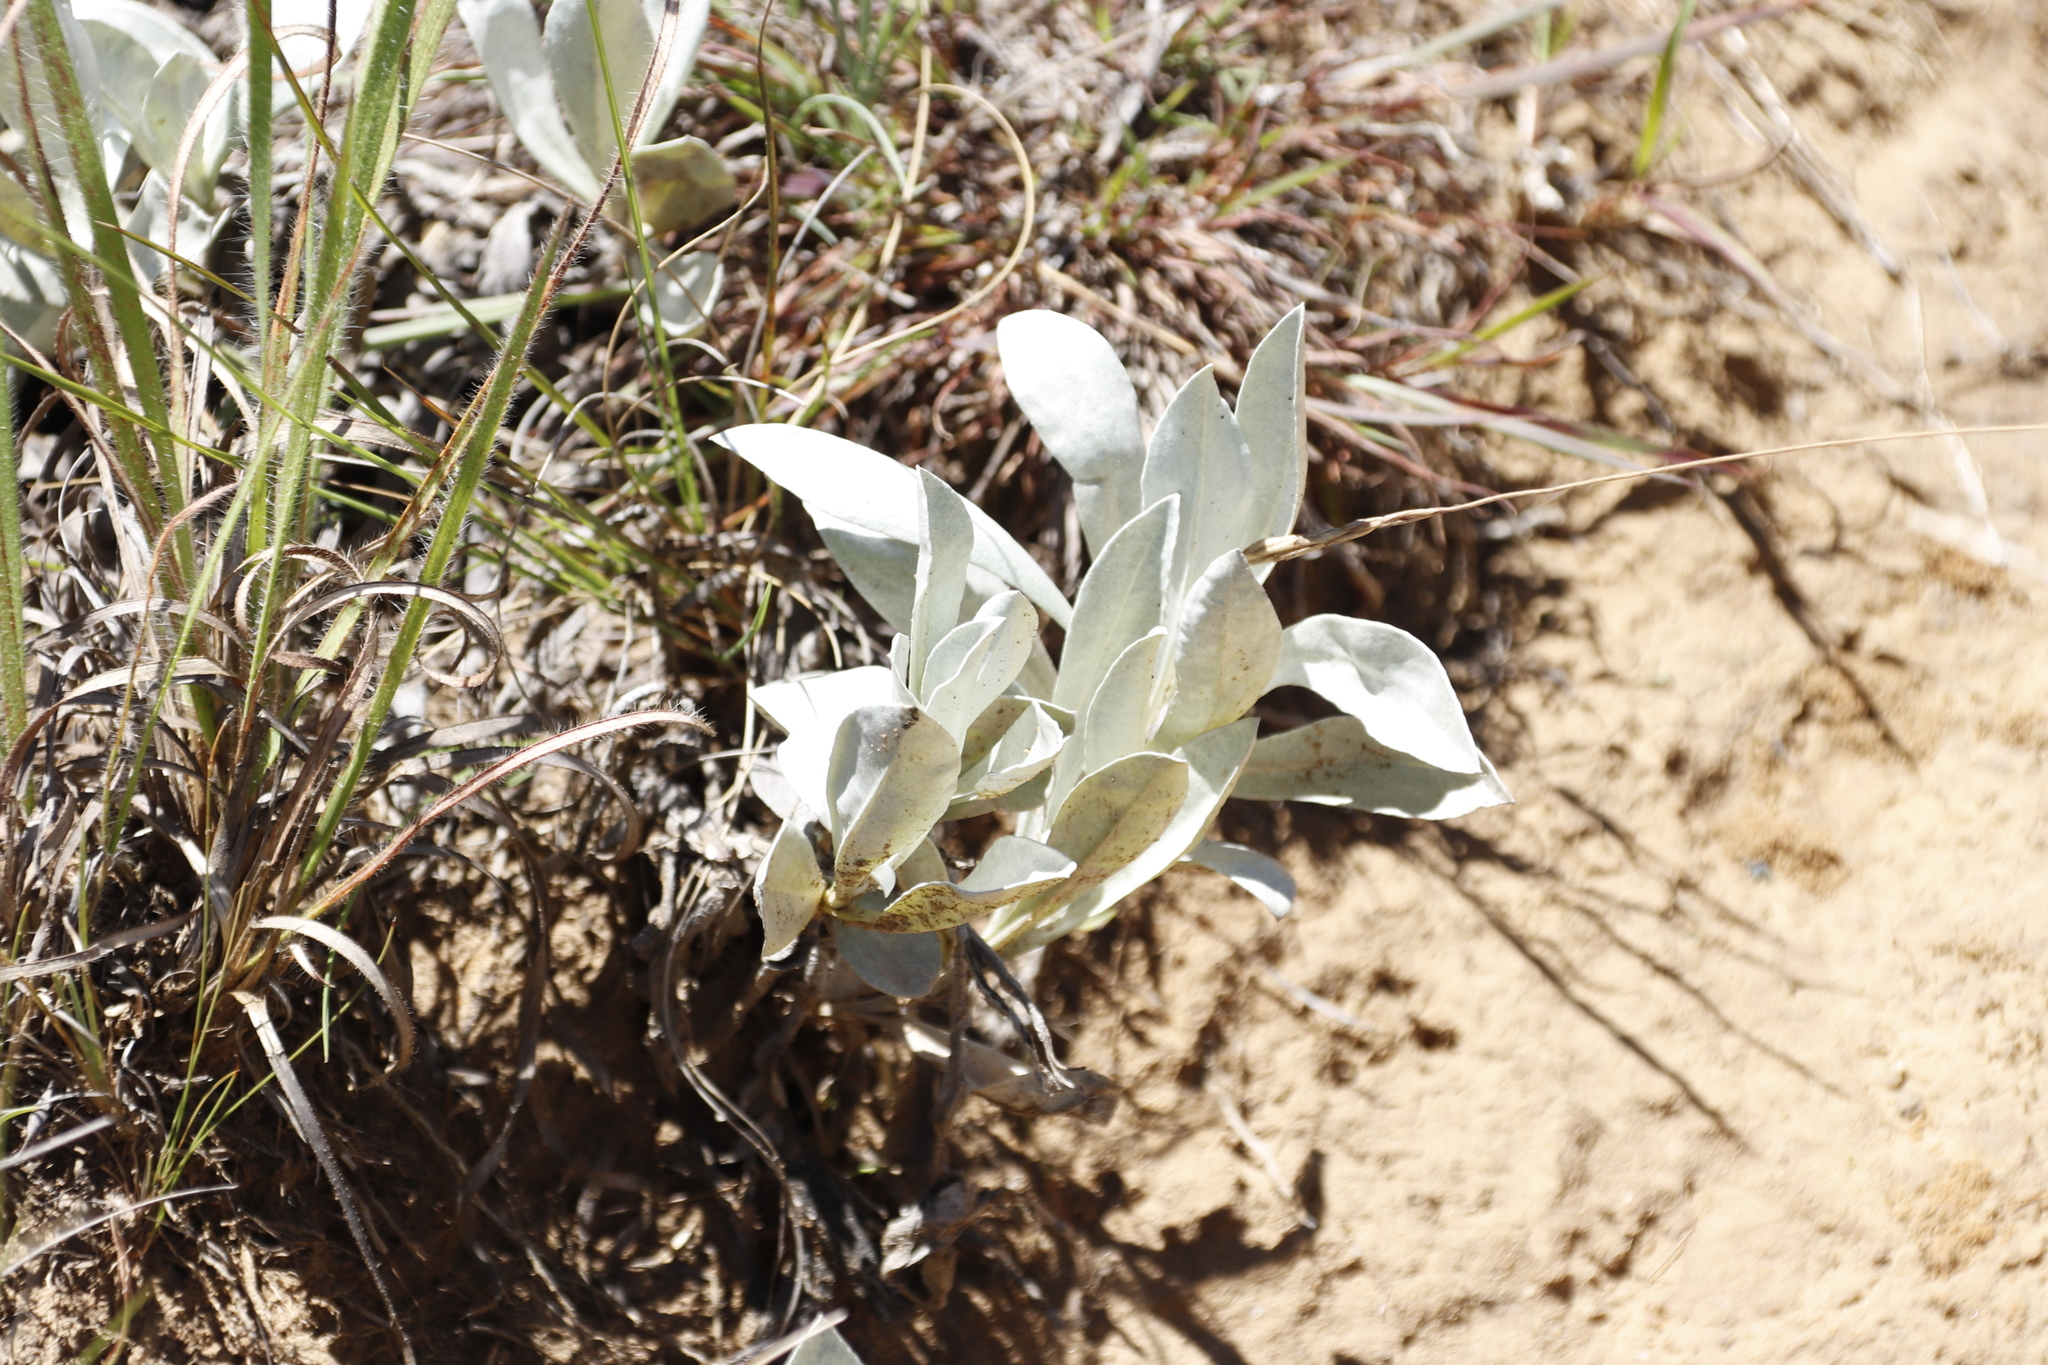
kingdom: Plantae
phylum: Tracheophyta
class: Magnoliopsida
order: Asterales
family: Asteraceae
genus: Helichrysum
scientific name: Helichrysum oreophilum
